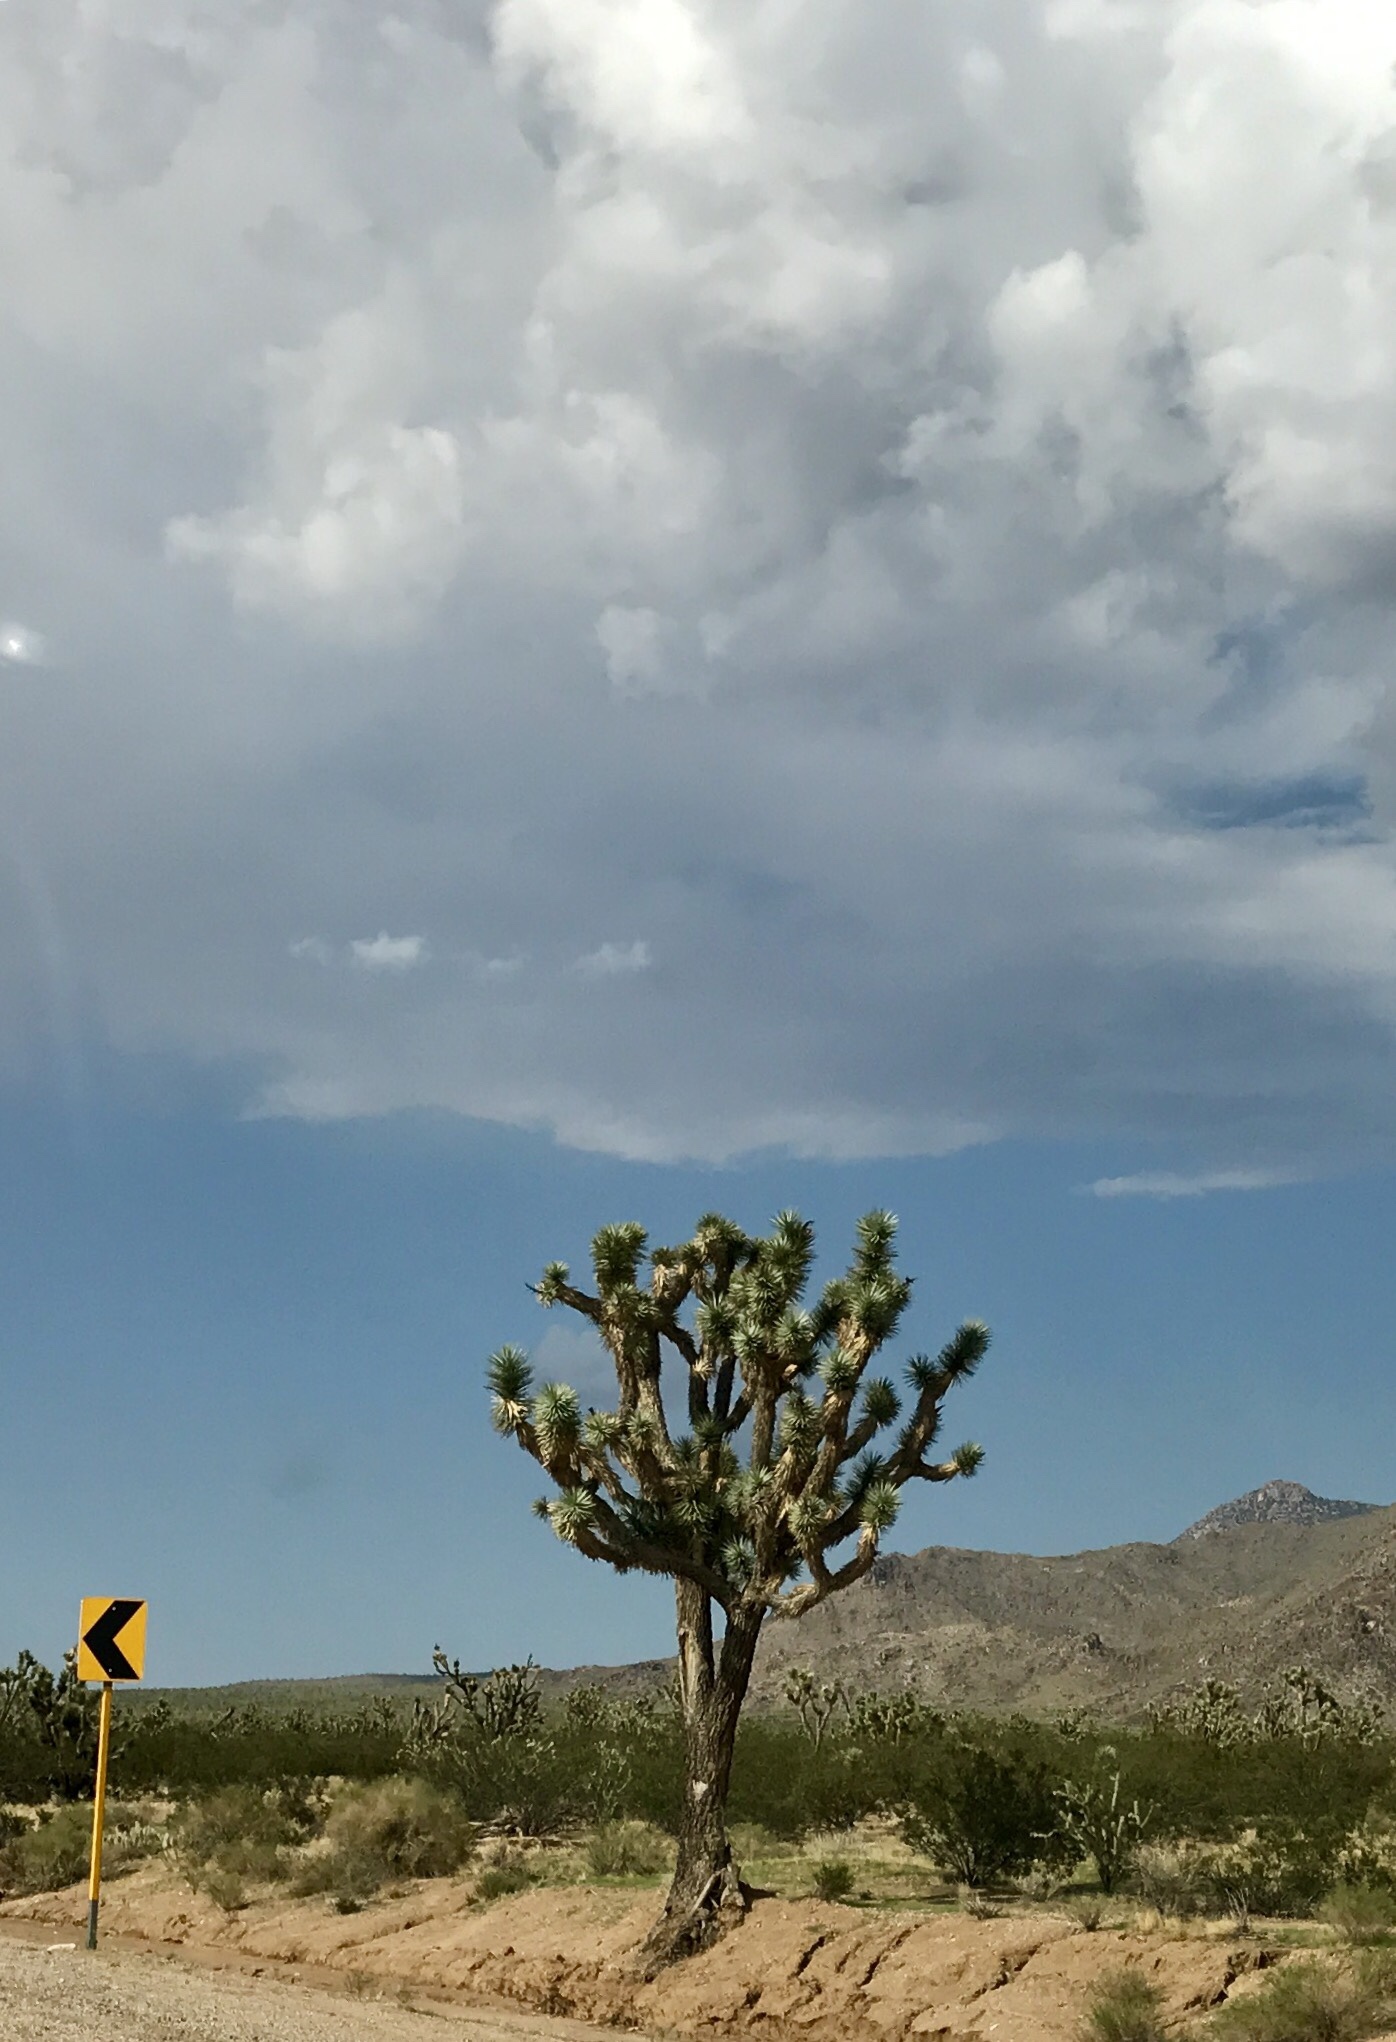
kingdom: Plantae
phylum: Tracheophyta
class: Liliopsida
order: Asparagales
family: Asparagaceae
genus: Yucca
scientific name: Yucca brevifolia
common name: Joshua tree
